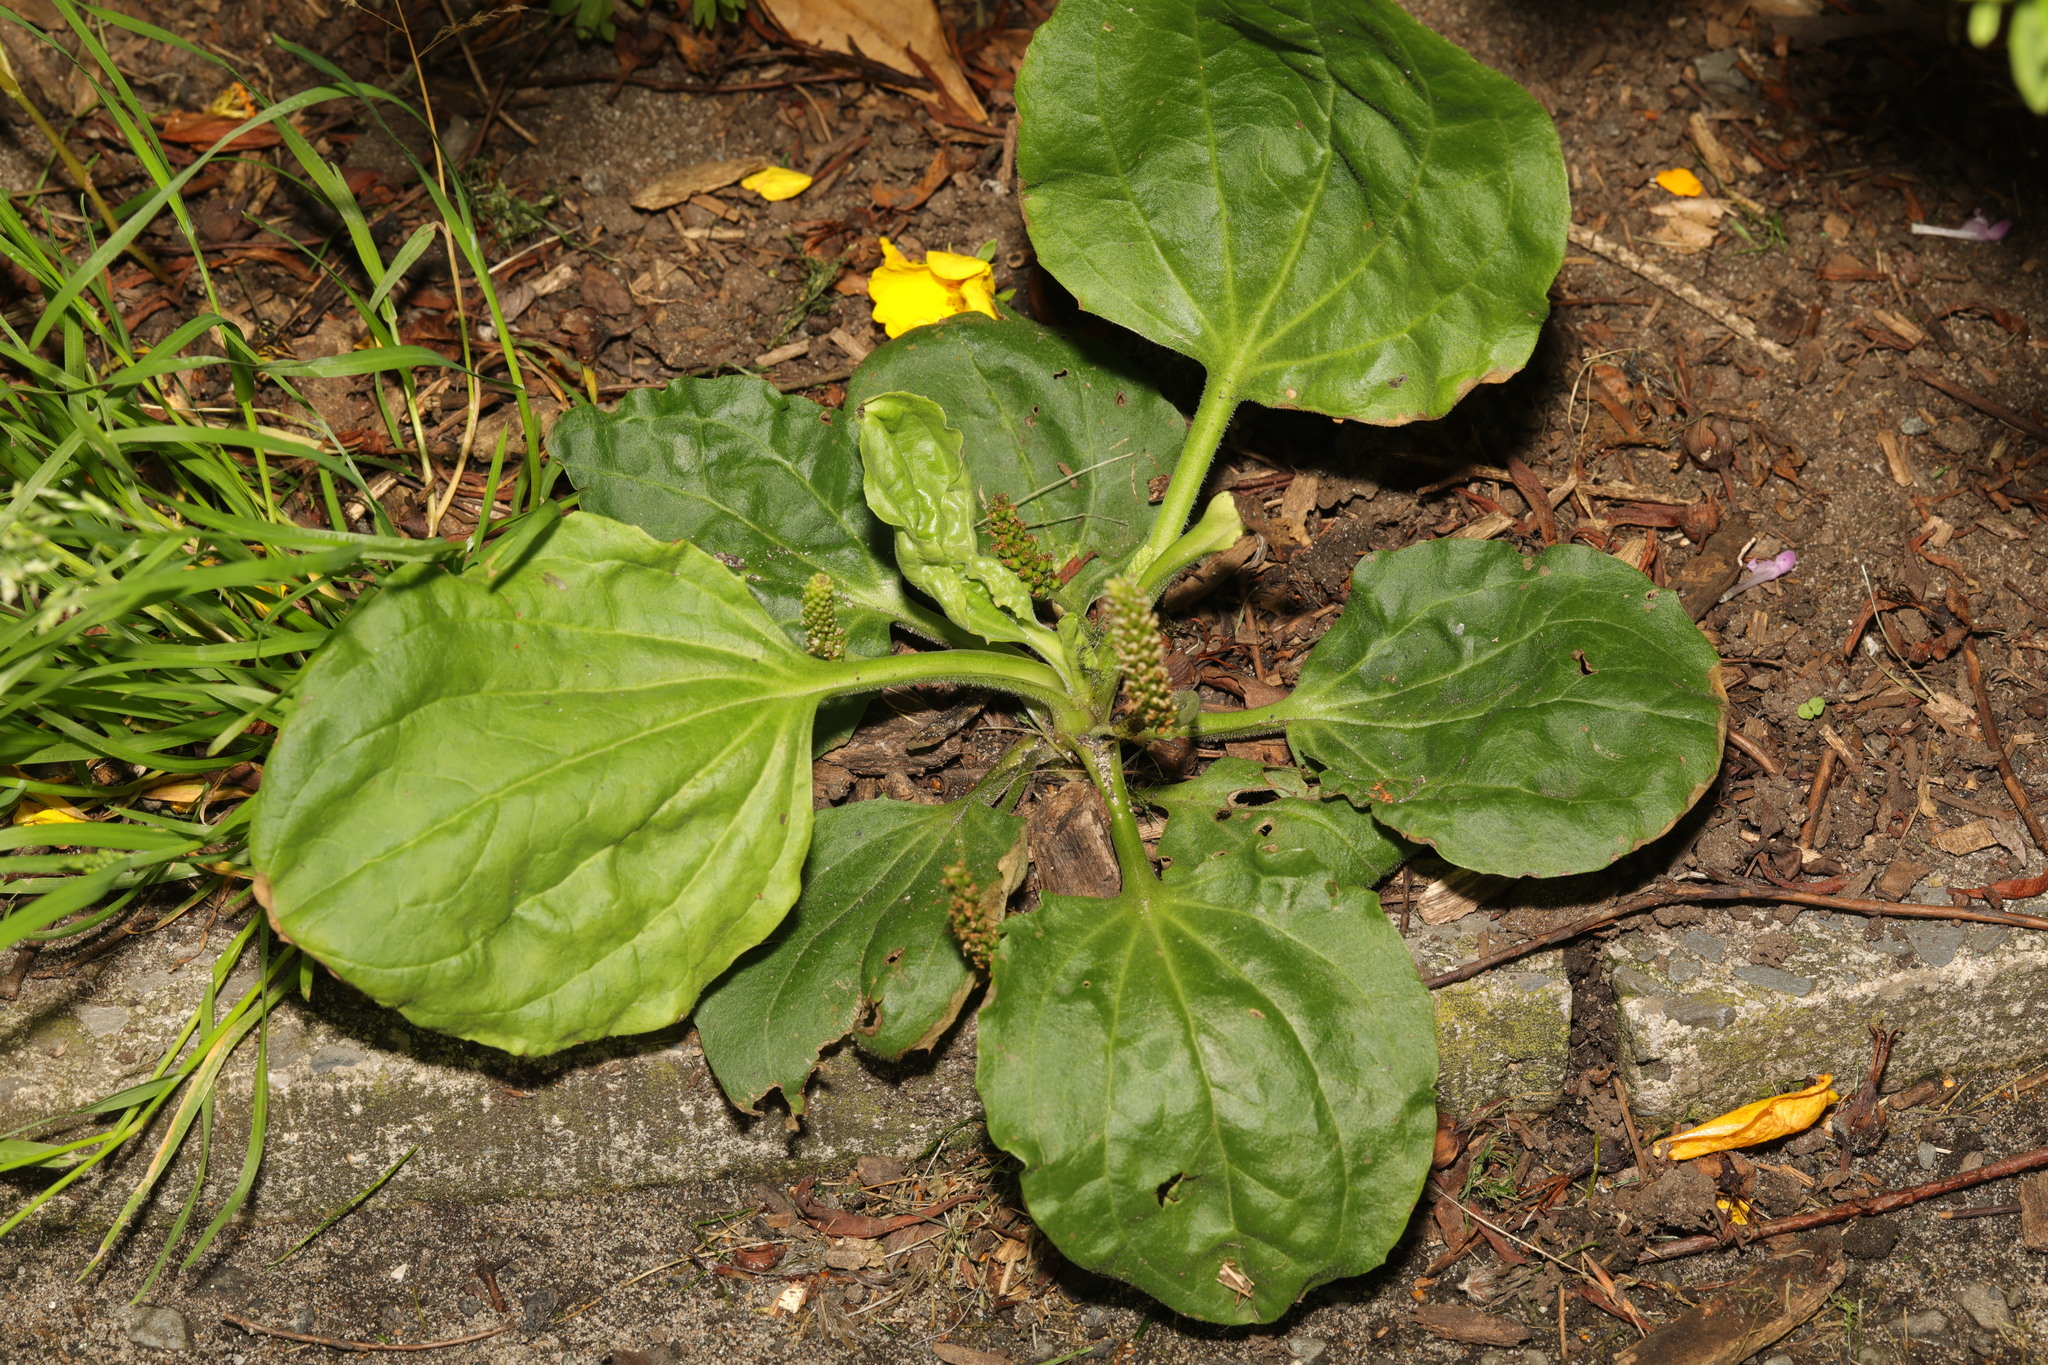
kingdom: Plantae
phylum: Tracheophyta
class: Magnoliopsida
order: Lamiales
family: Plantaginaceae
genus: Plantago
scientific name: Plantago major
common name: Common plantain
